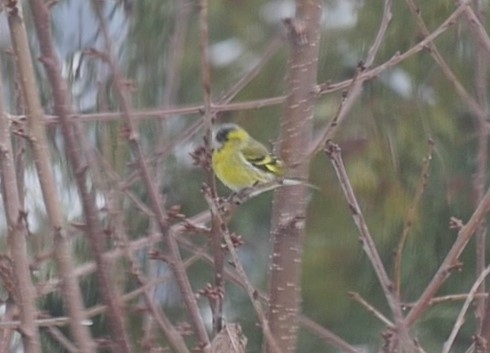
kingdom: Animalia
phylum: Chordata
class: Aves
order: Passeriformes
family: Fringillidae
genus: Spinus
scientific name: Spinus spinus
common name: Eurasian siskin
